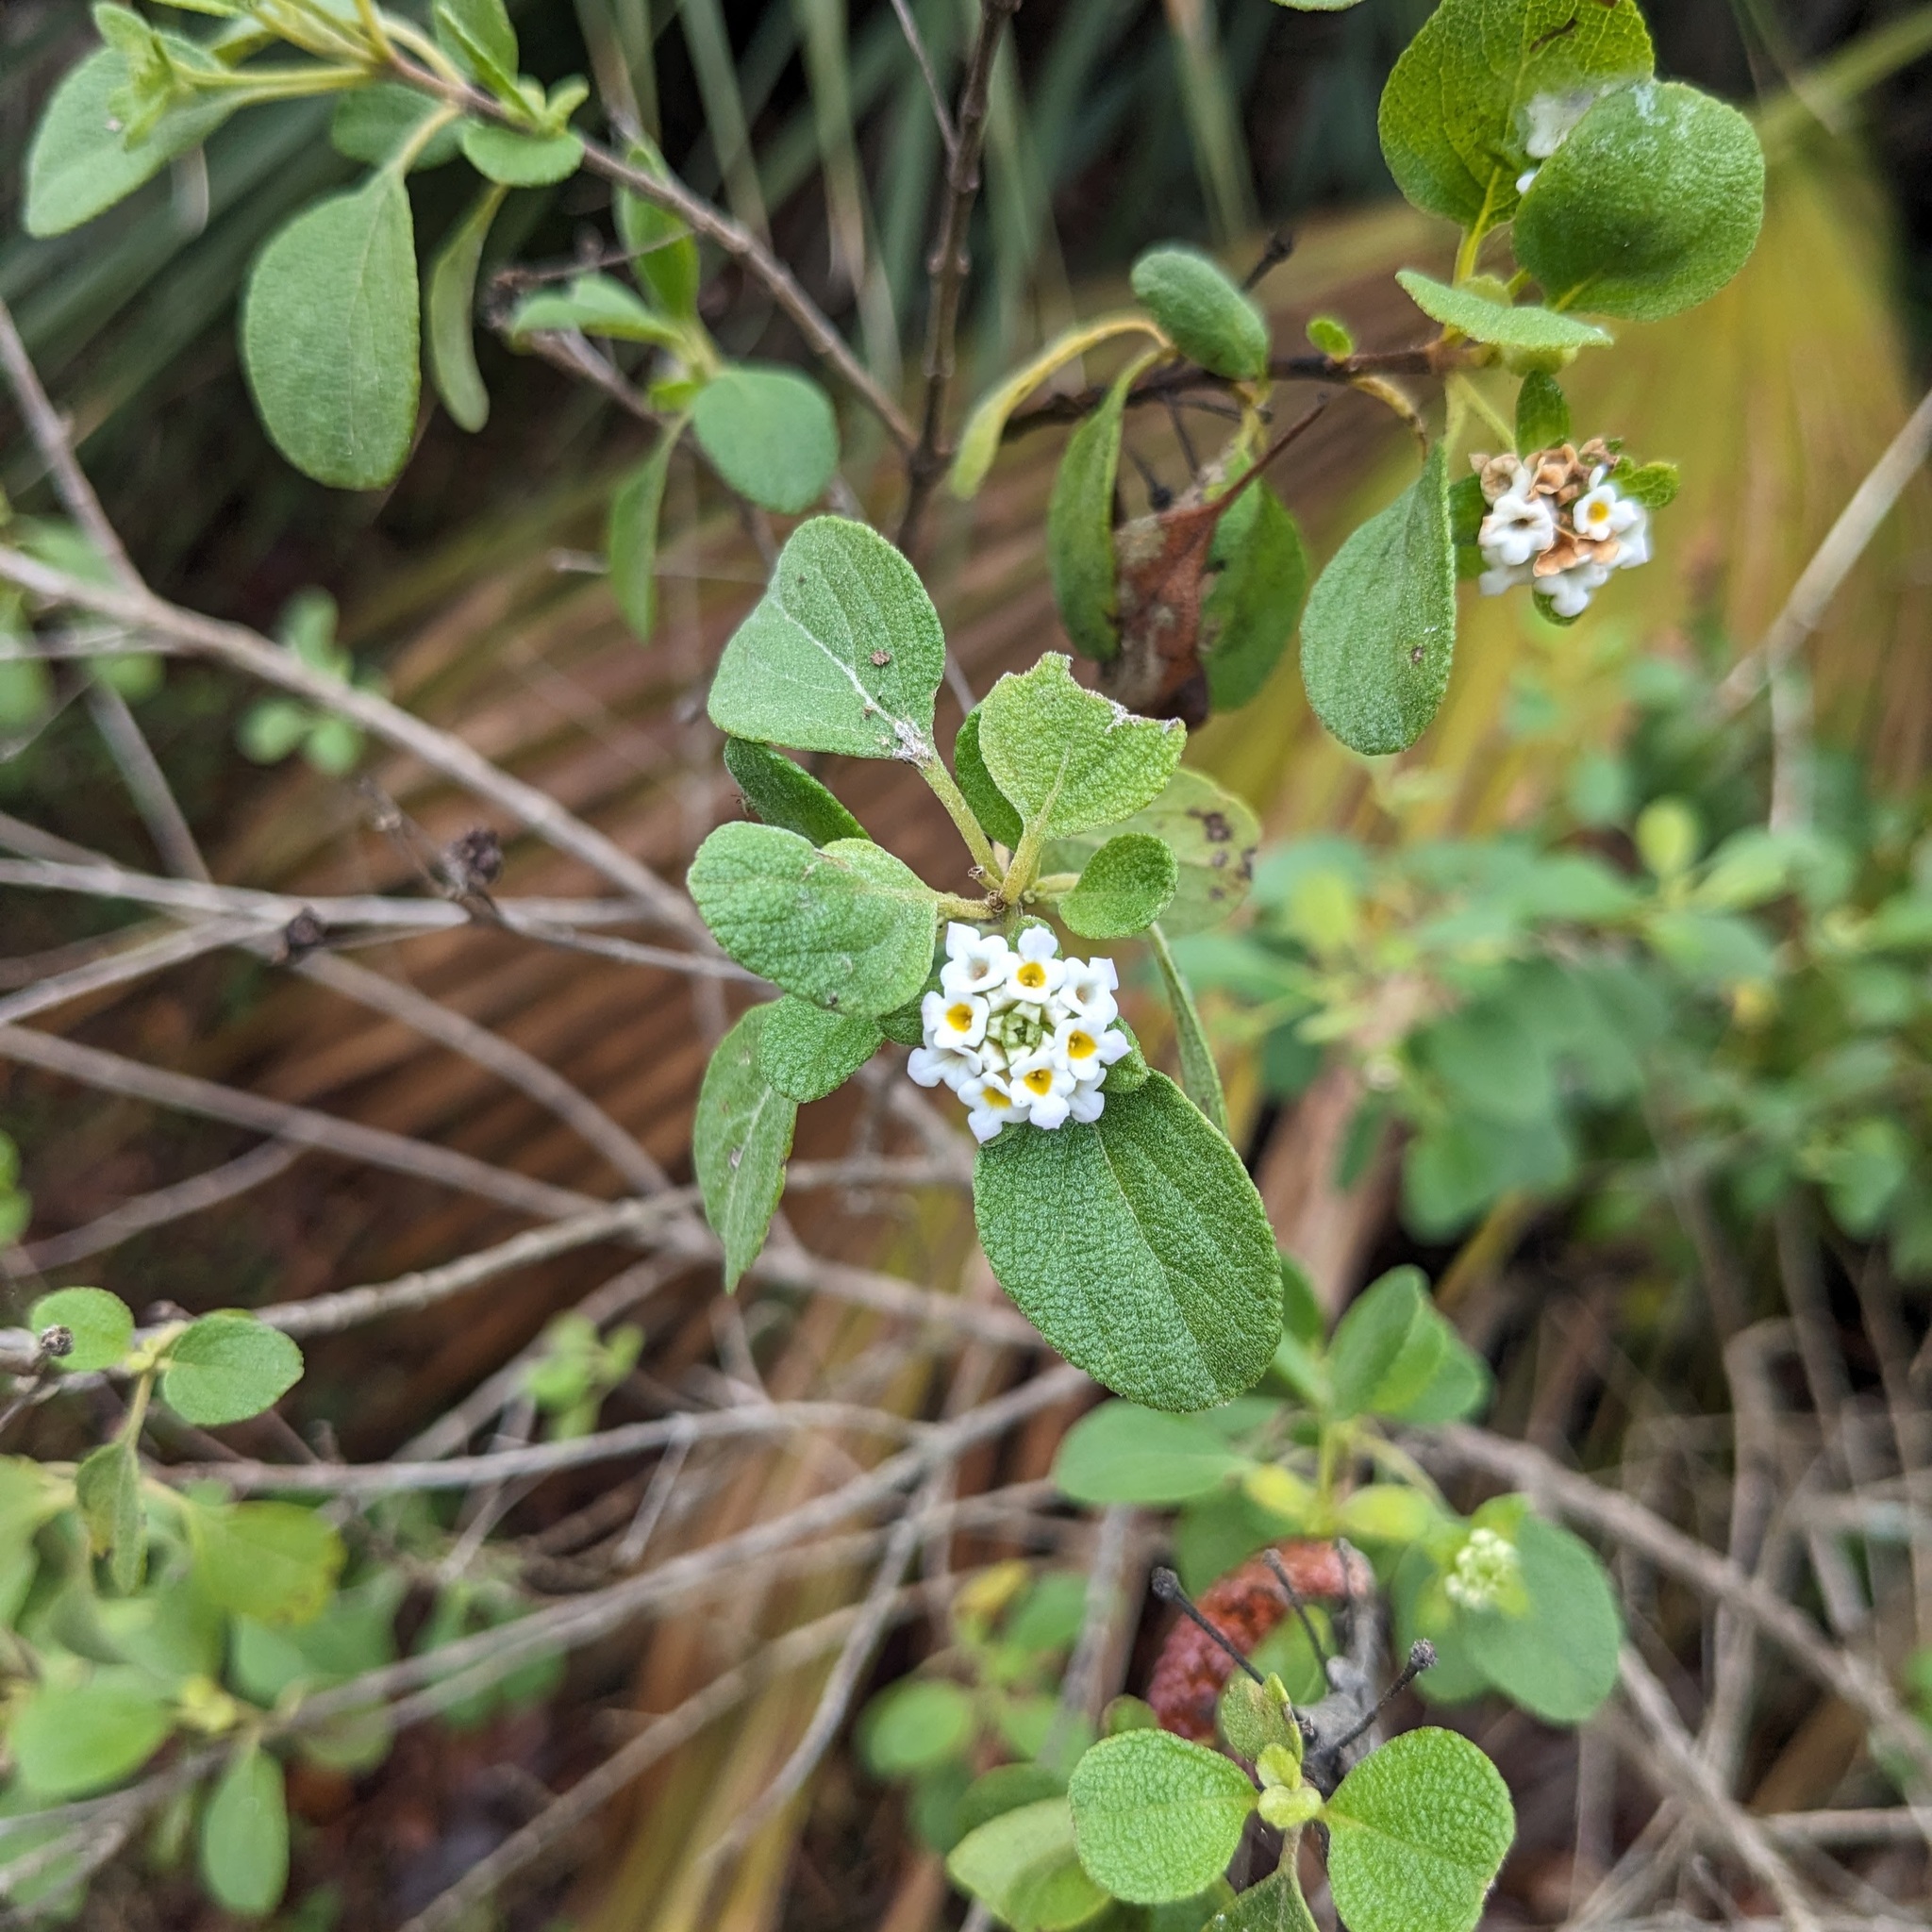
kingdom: Plantae
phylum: Tracheophyta
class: Magnoliopsida
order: Lamiales
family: Verbenaceae
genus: Lantana
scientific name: Lantana involucrata
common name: Black sage
